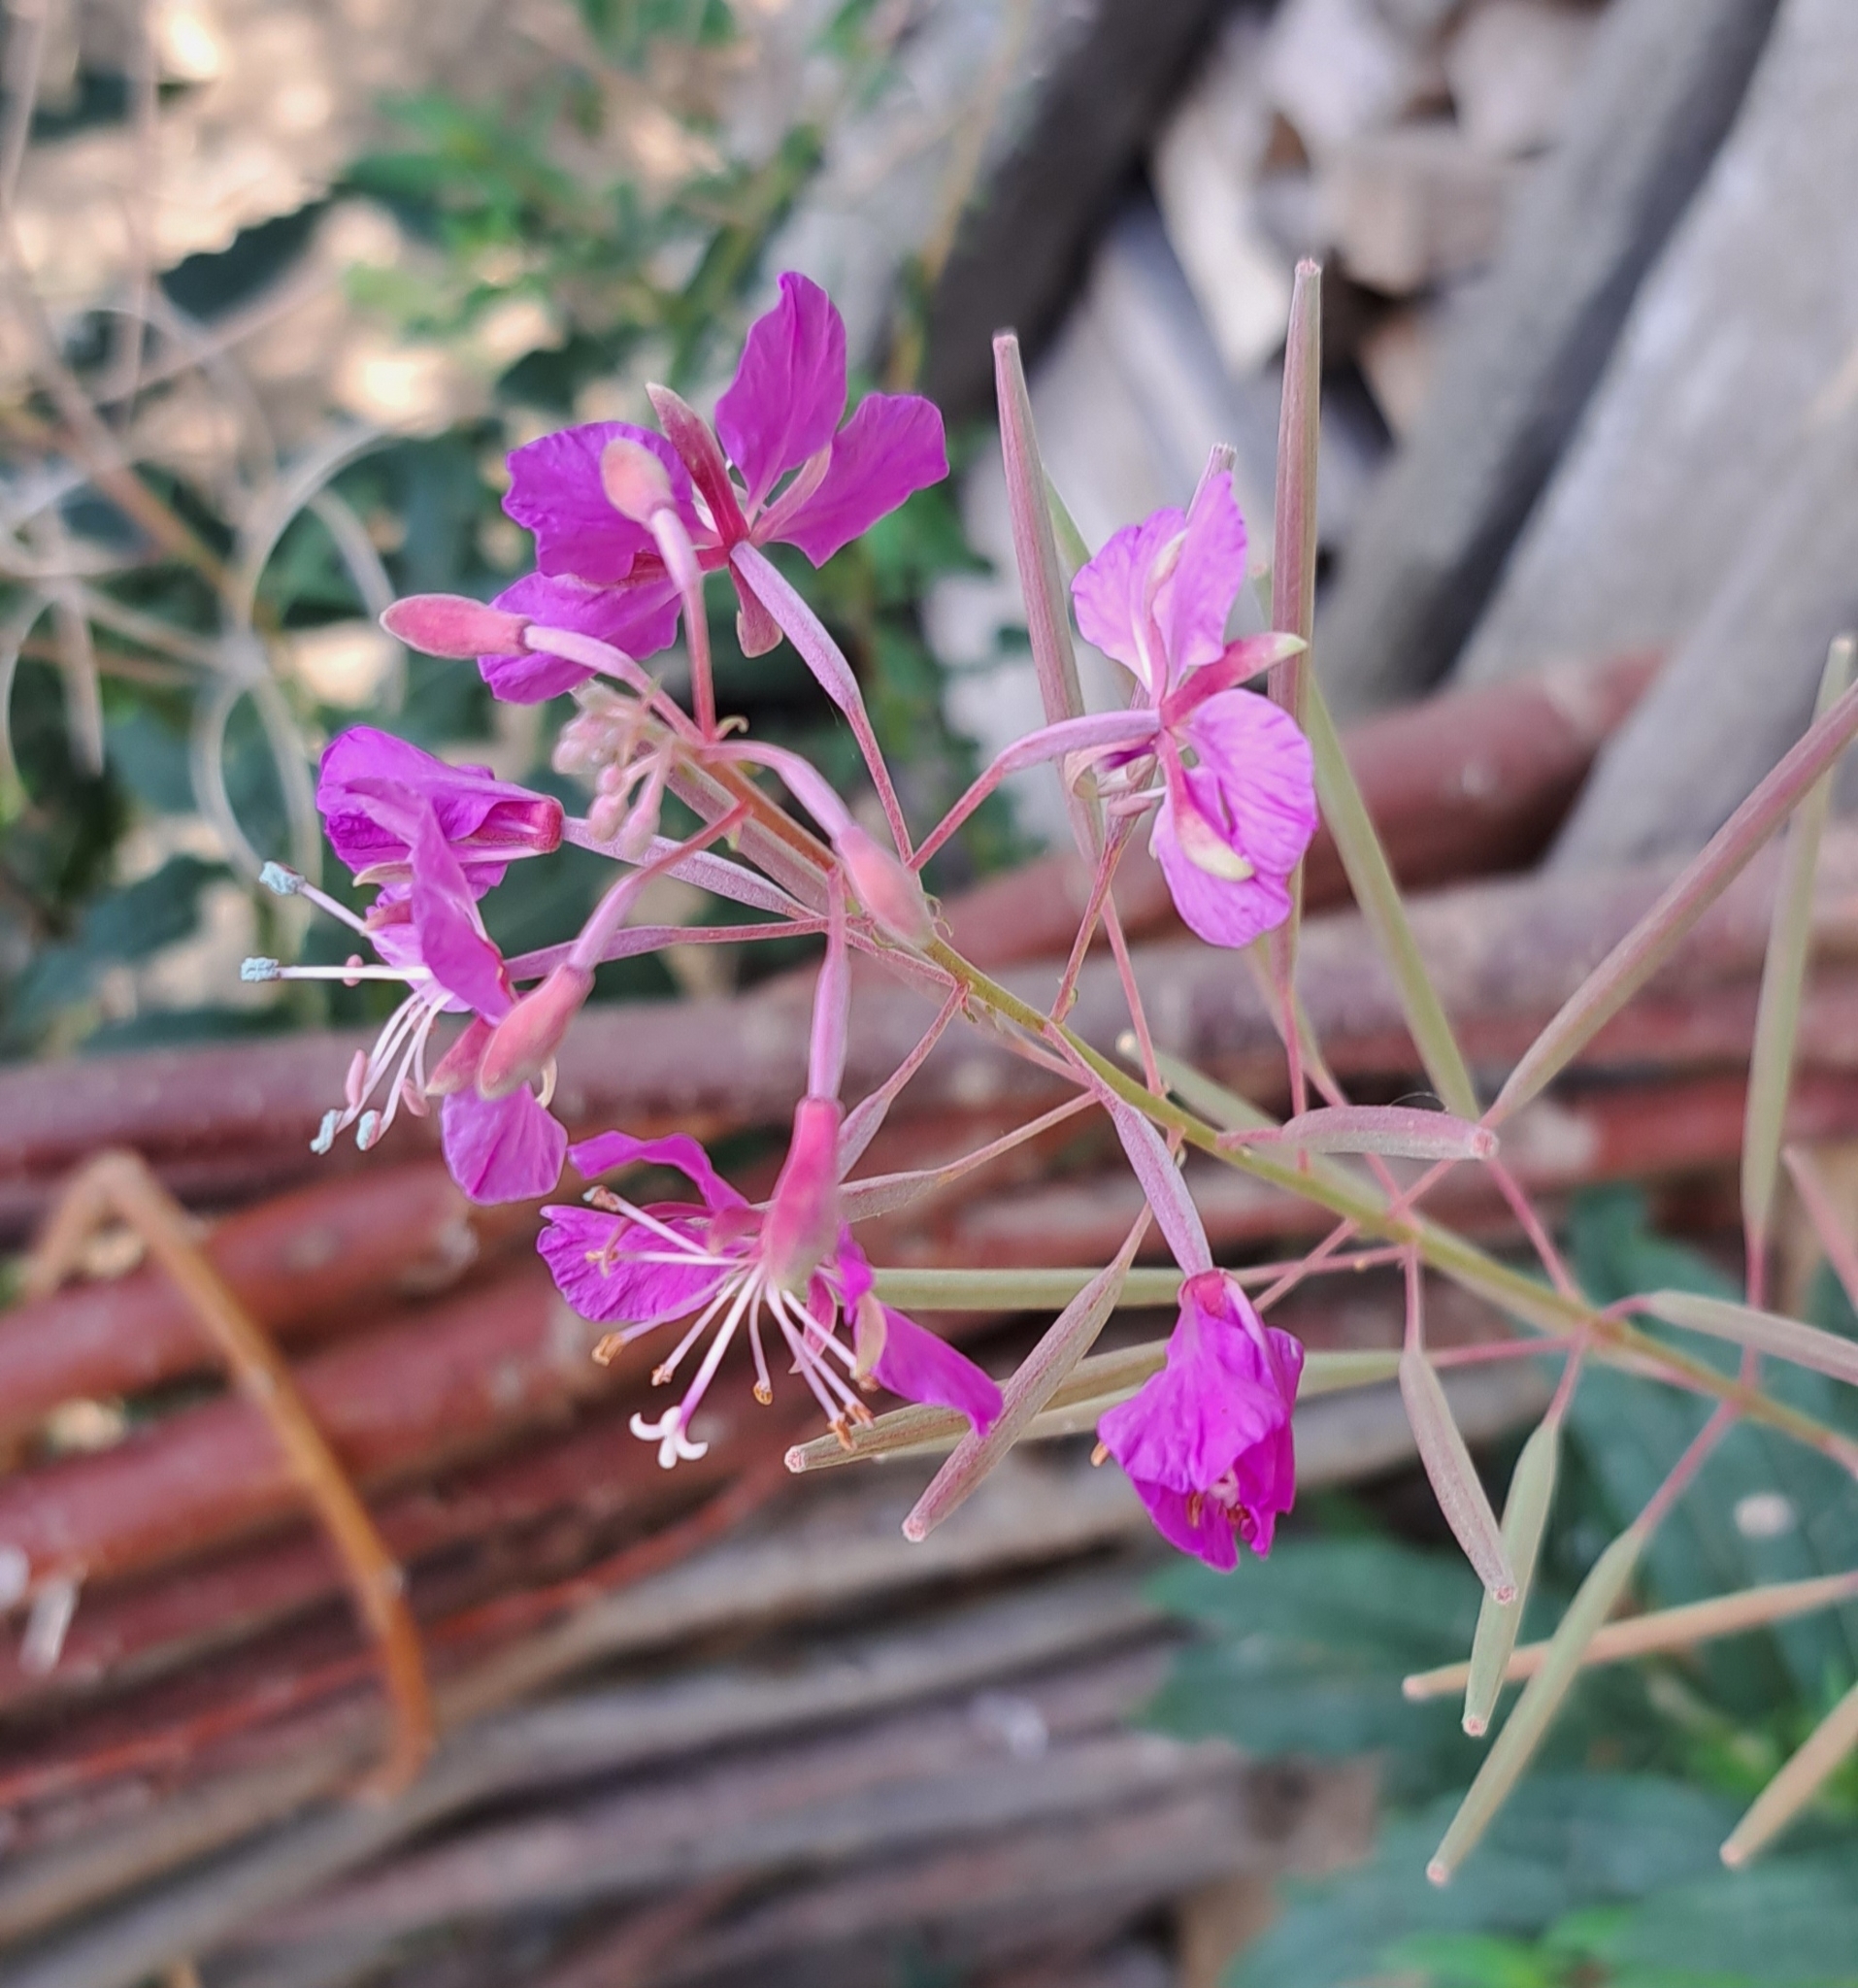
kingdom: Plantae
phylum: Tracheophyta
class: Magnoliopsida
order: Myrtales
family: Onagraceae
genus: Chamaenerion
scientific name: Chamaenerion angustifolium
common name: Fireweed
